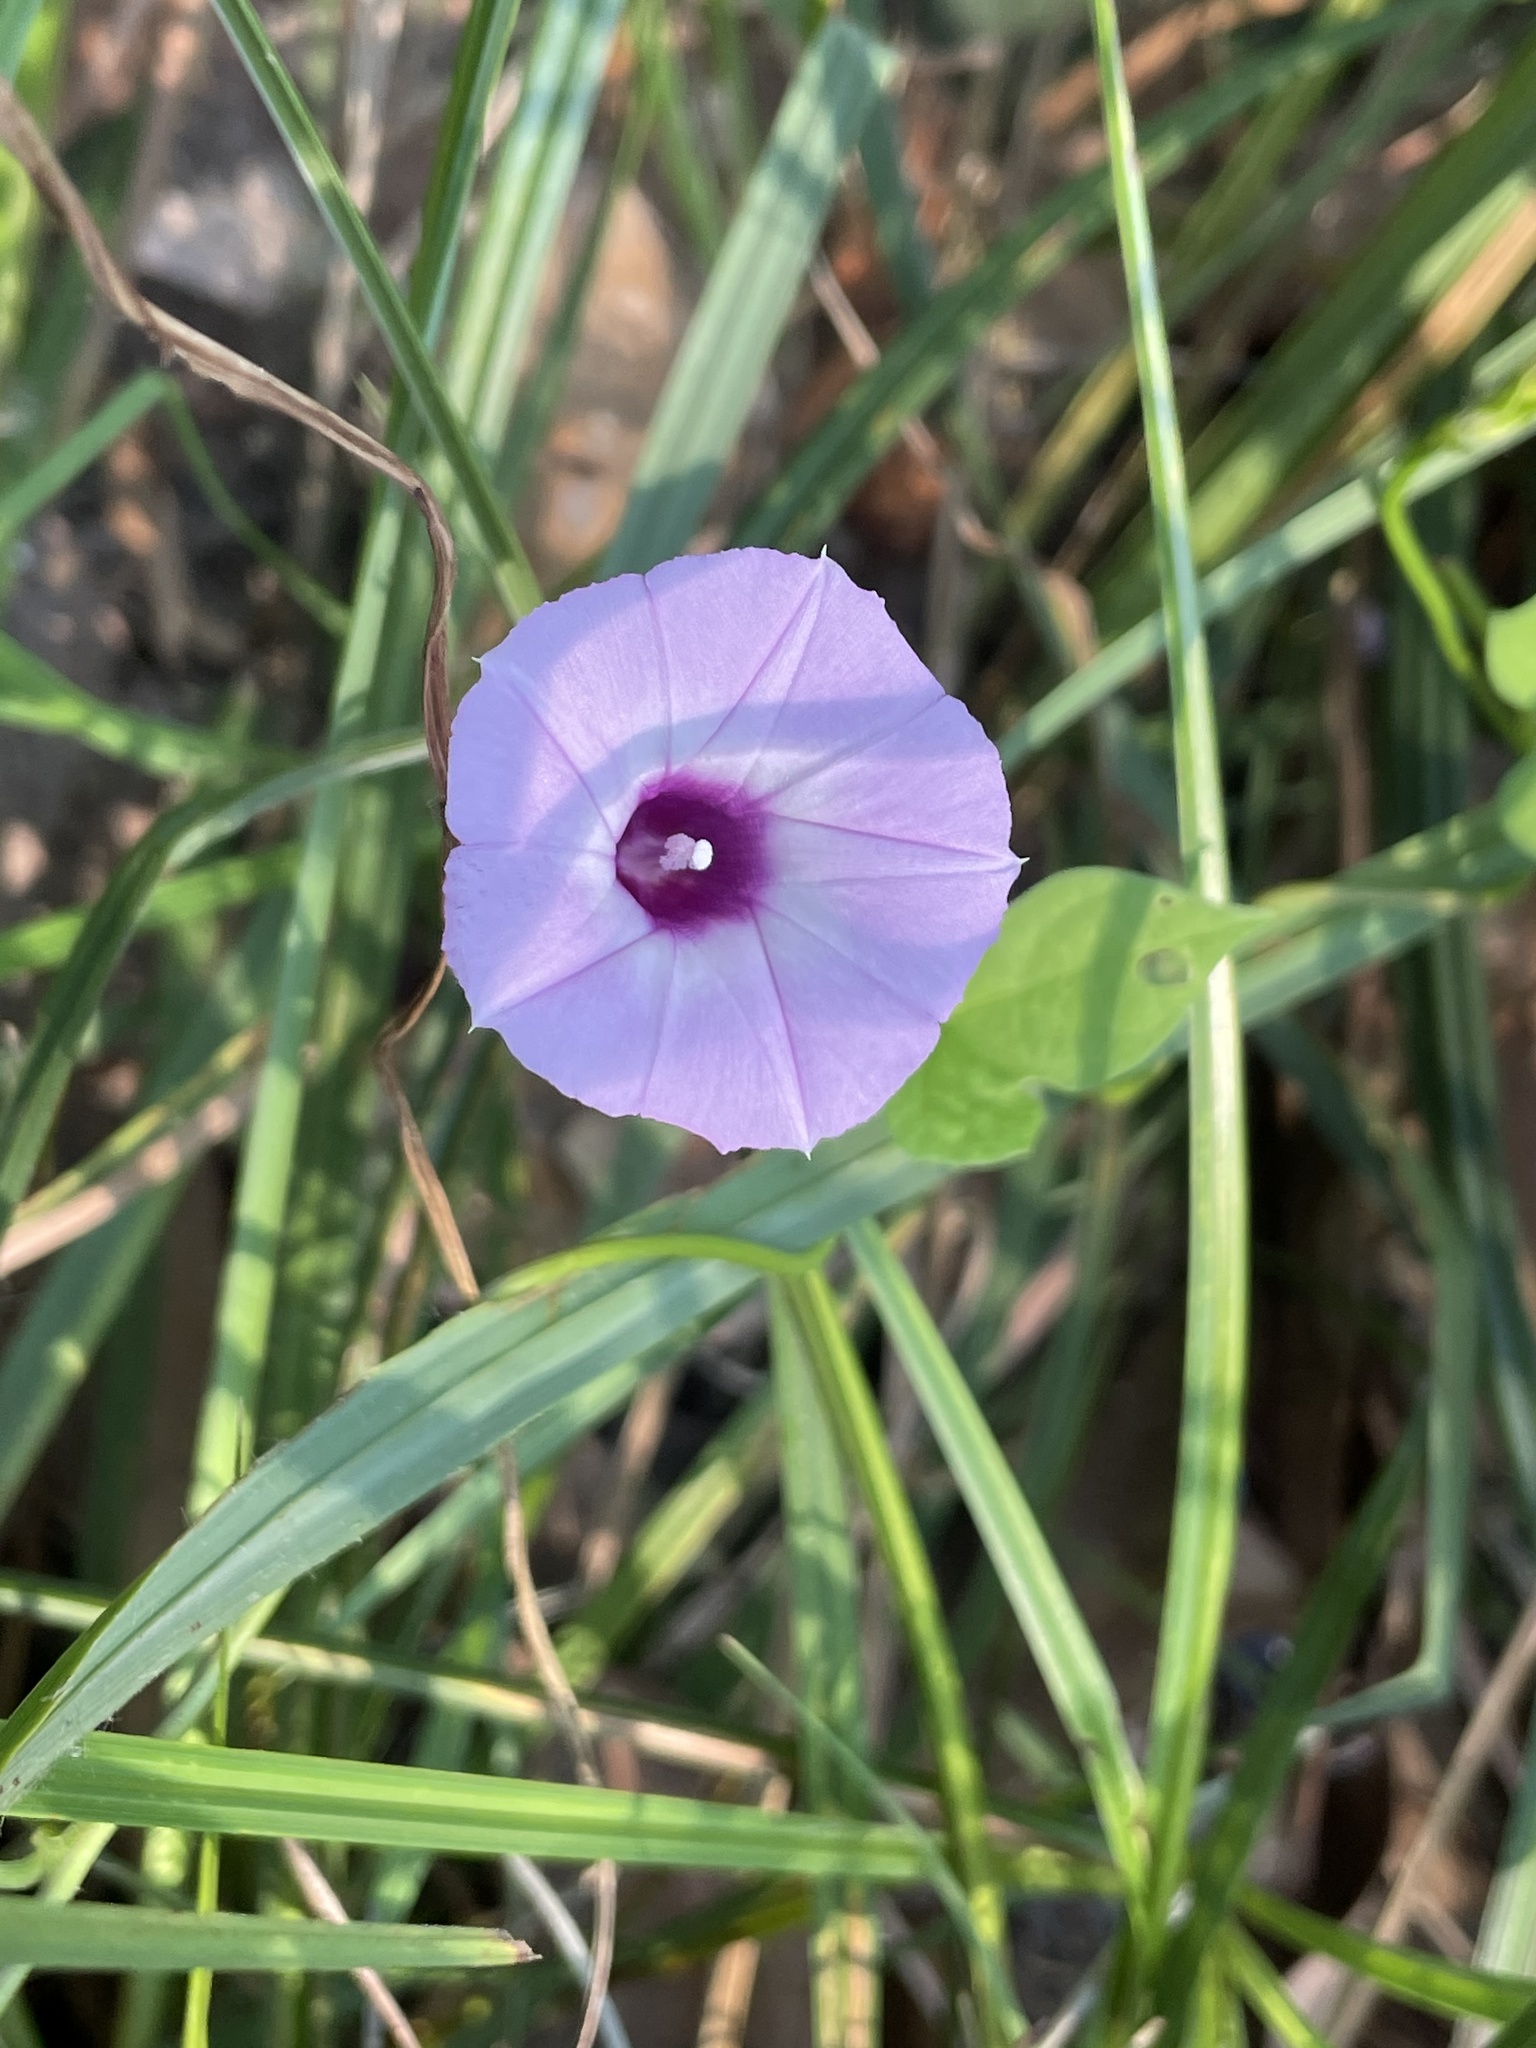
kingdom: Plantae
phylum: Tracheophyta
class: Magnoliopsida
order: Solanales
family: Convolvulaceae
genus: Ipomoea
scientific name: Ipomoea cordatotriloba
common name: Cotton morning glory
